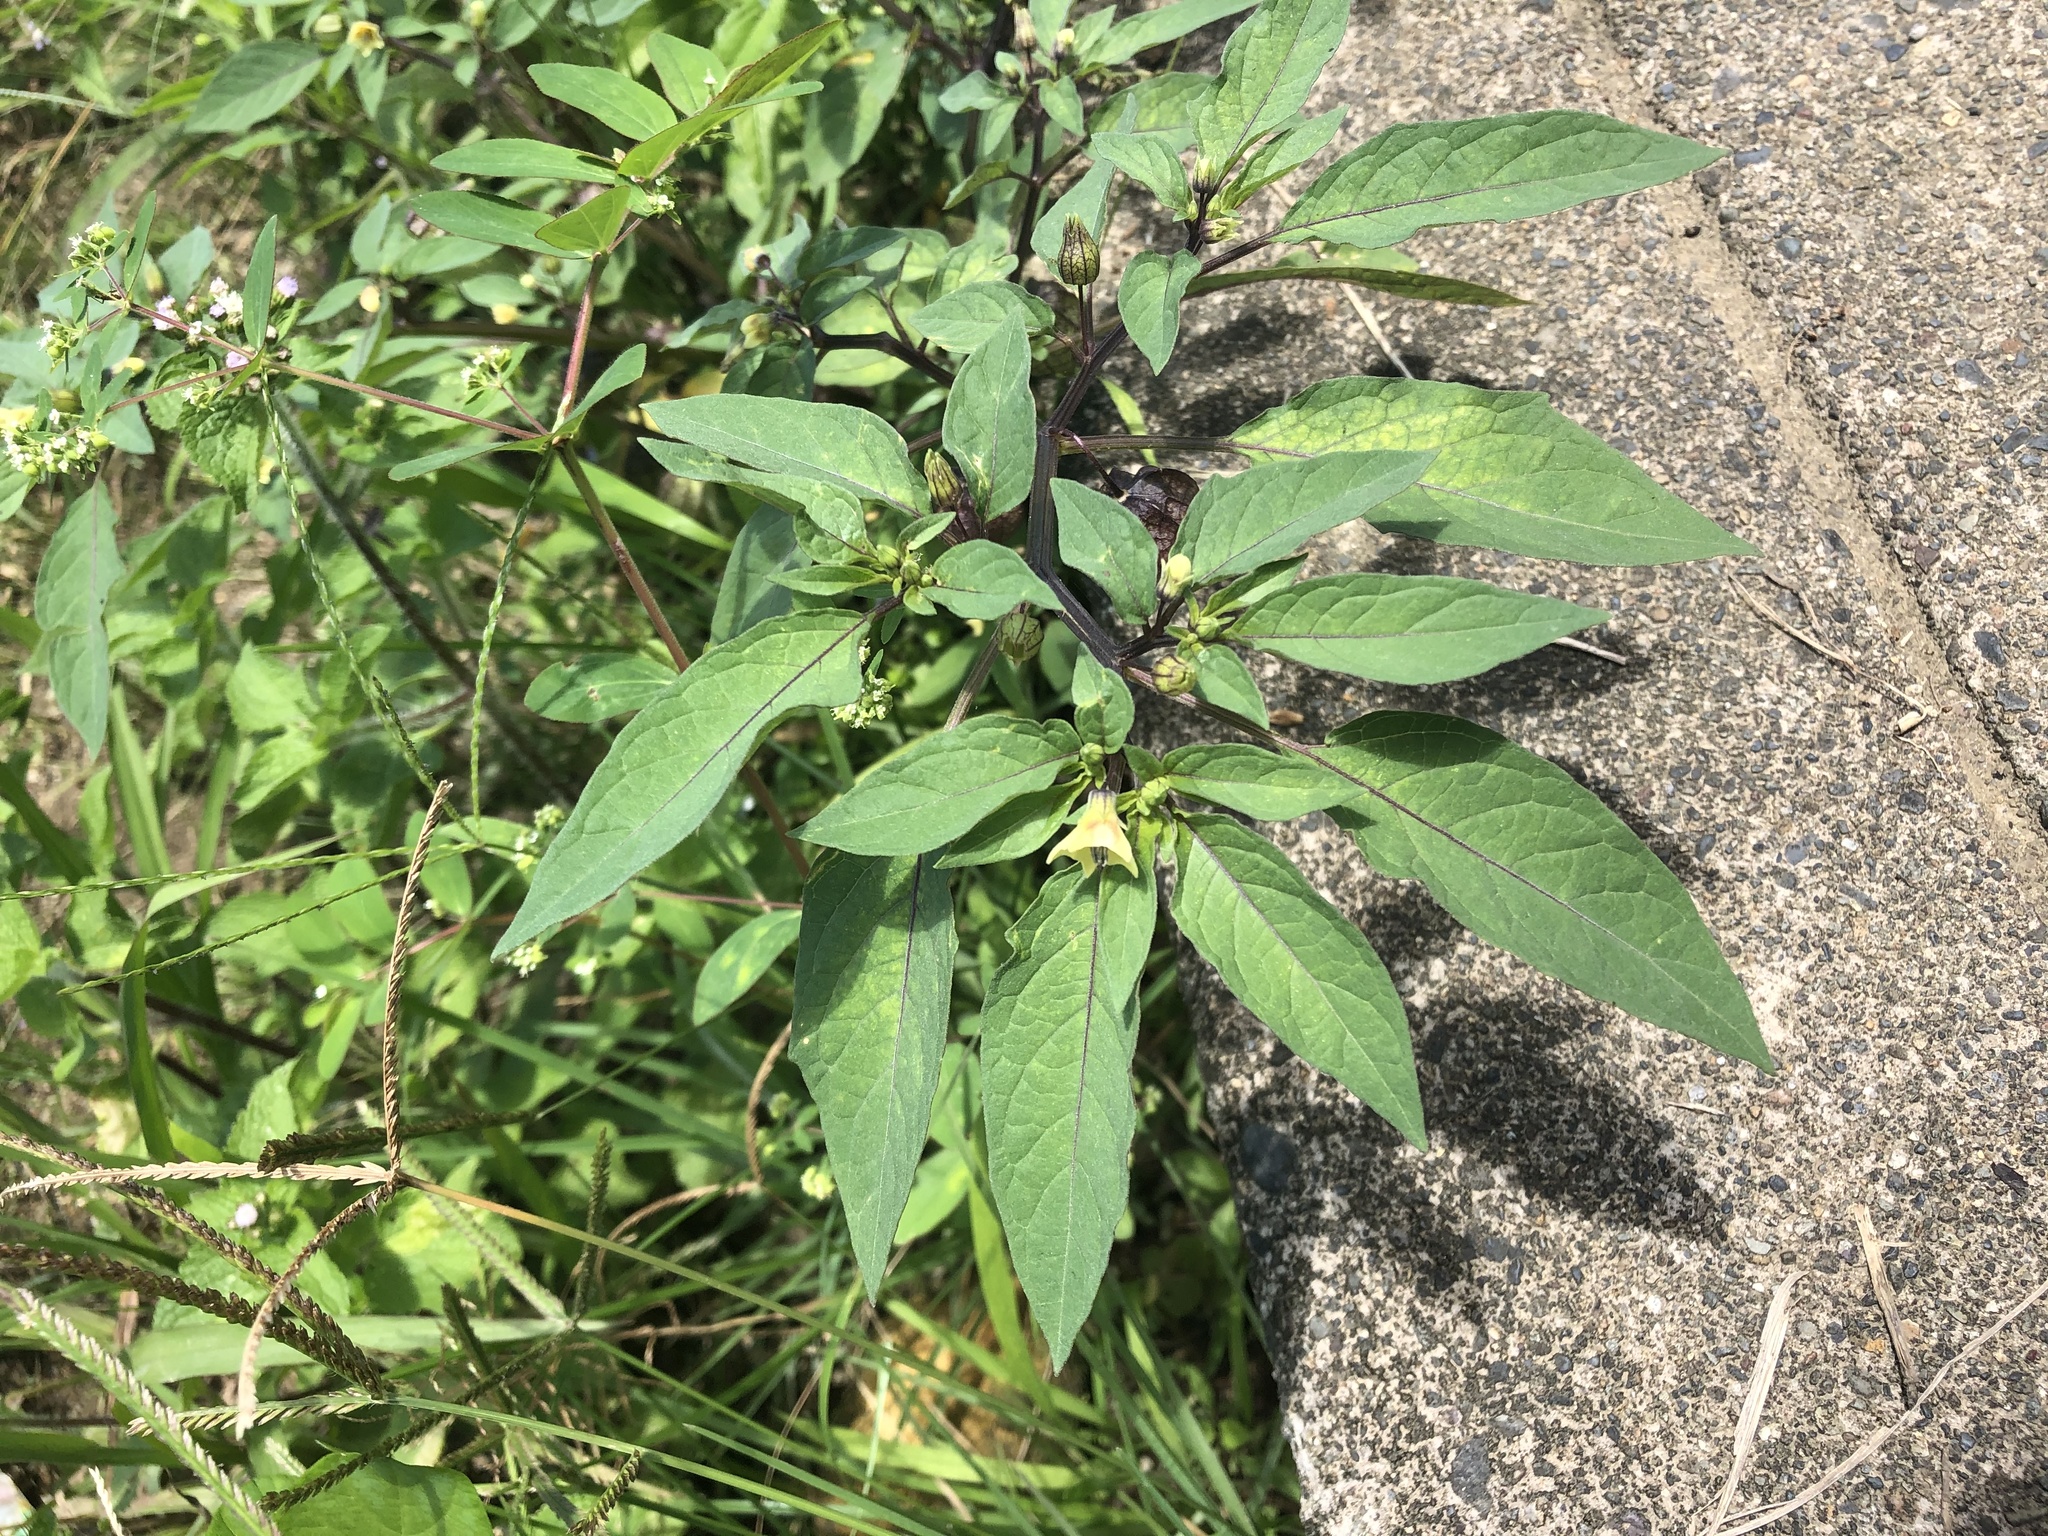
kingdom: Plantae
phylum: Tracheophyta
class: Magnoliopsida
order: Solanales
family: Solanaceae
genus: Physalis
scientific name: Physalis angulata
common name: Angular winter-cherry
